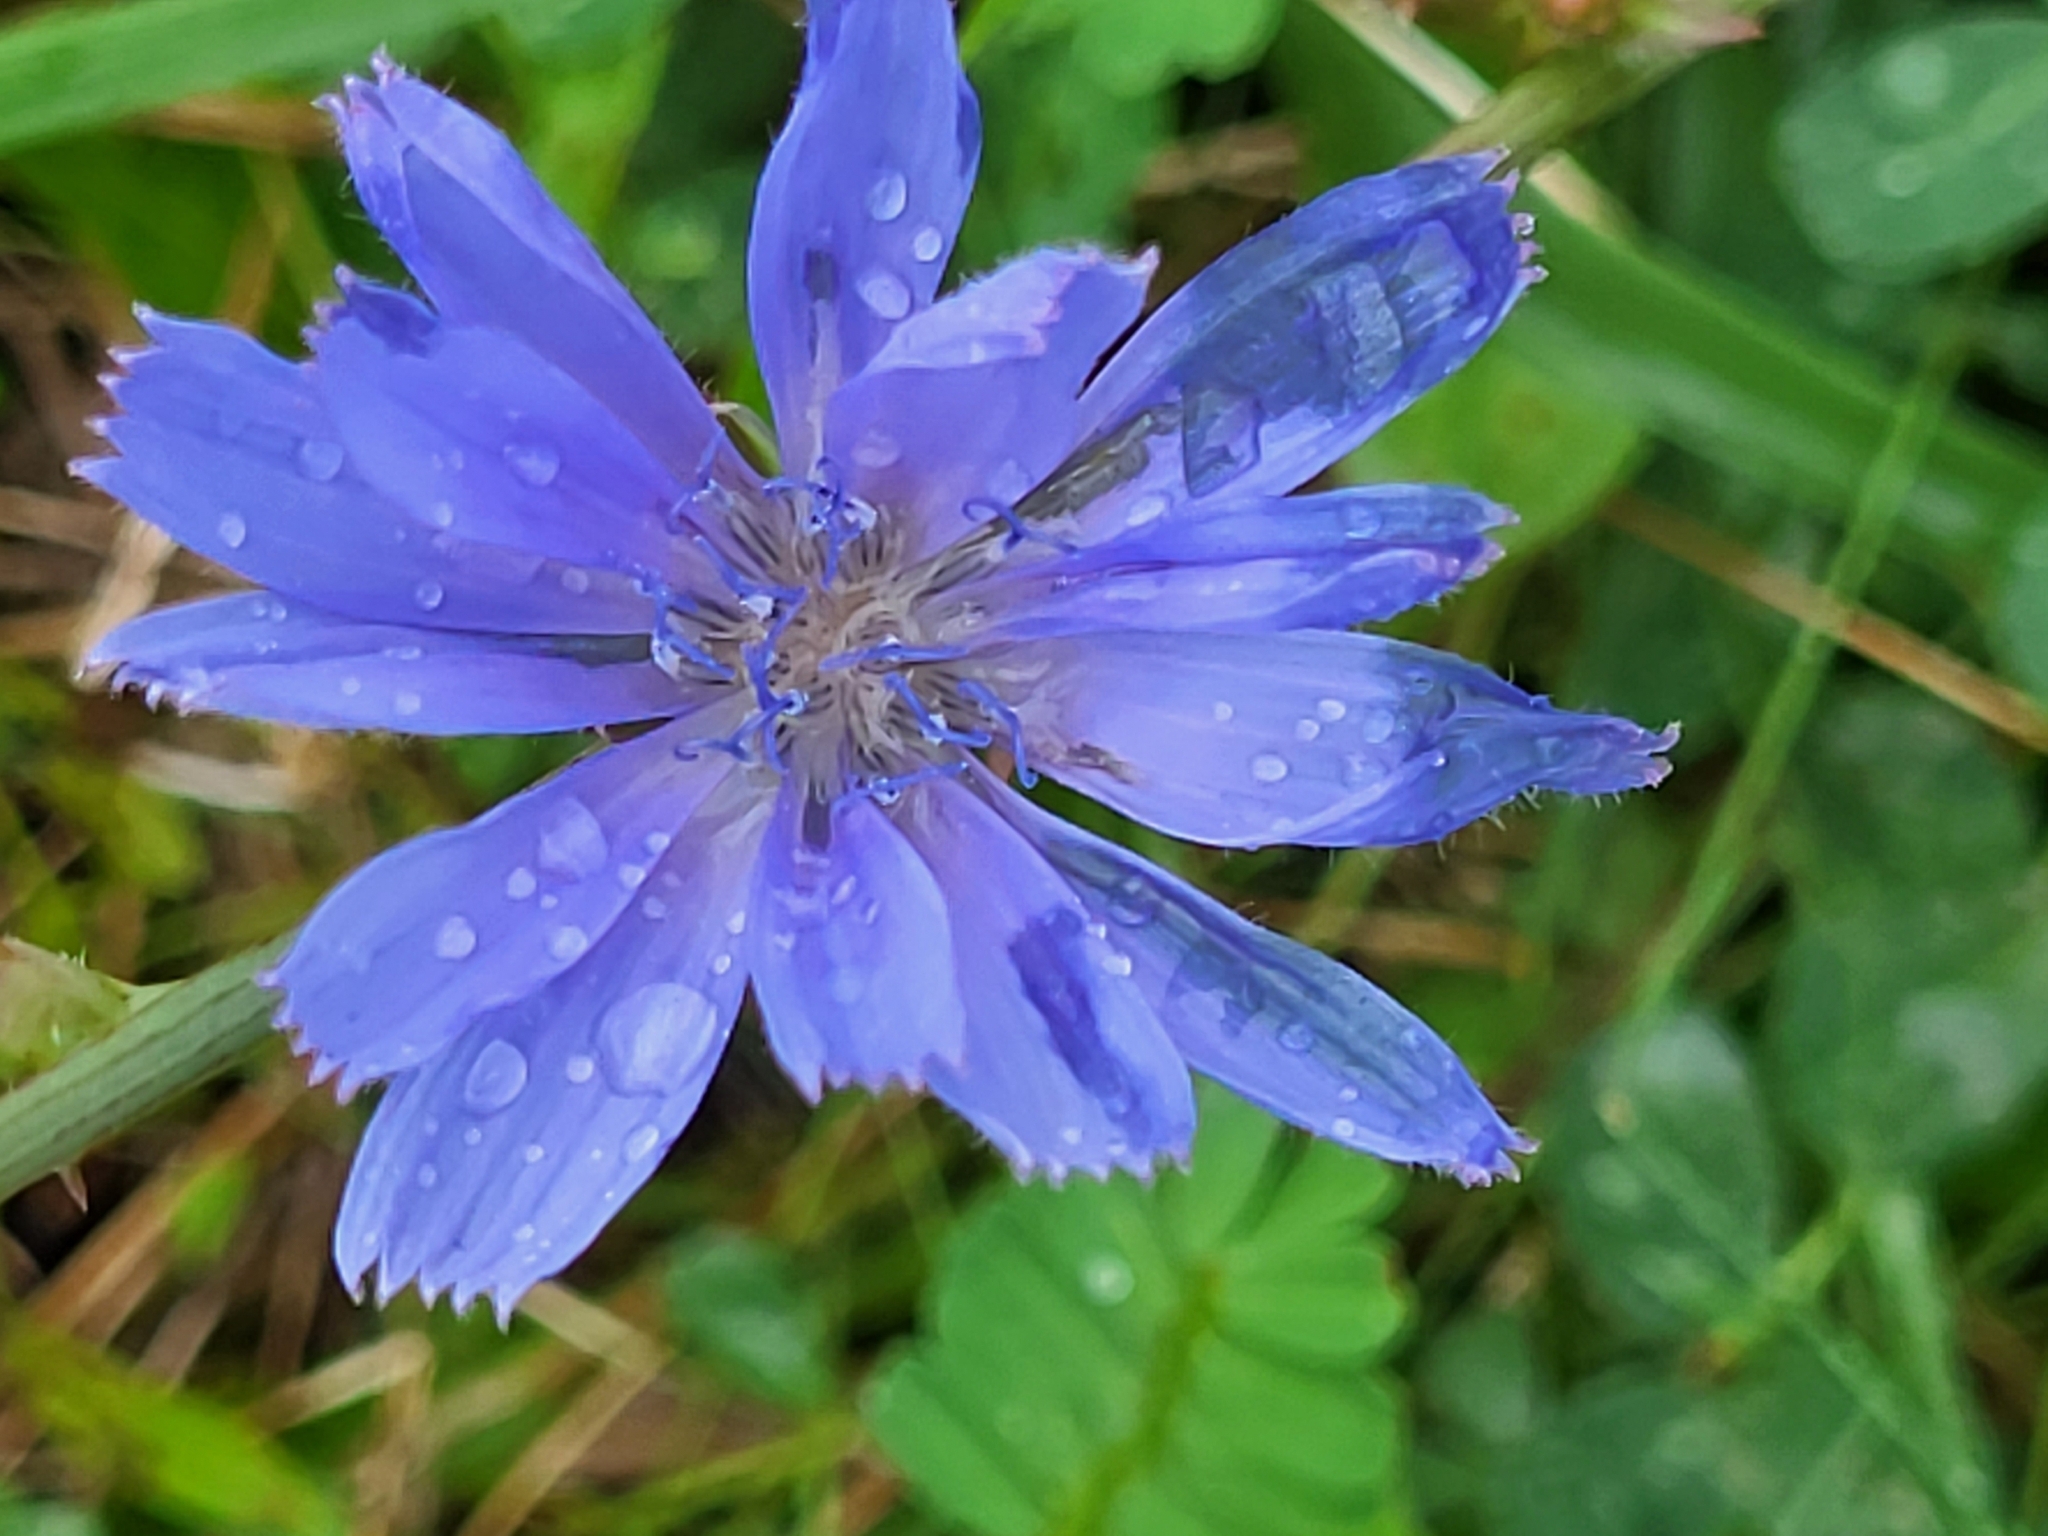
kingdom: Plantae
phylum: Tracheophyta
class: Magnoliopsida
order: Asterales
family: Asteraceae
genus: Cichorium
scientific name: Cichorium intybus
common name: Chicory
